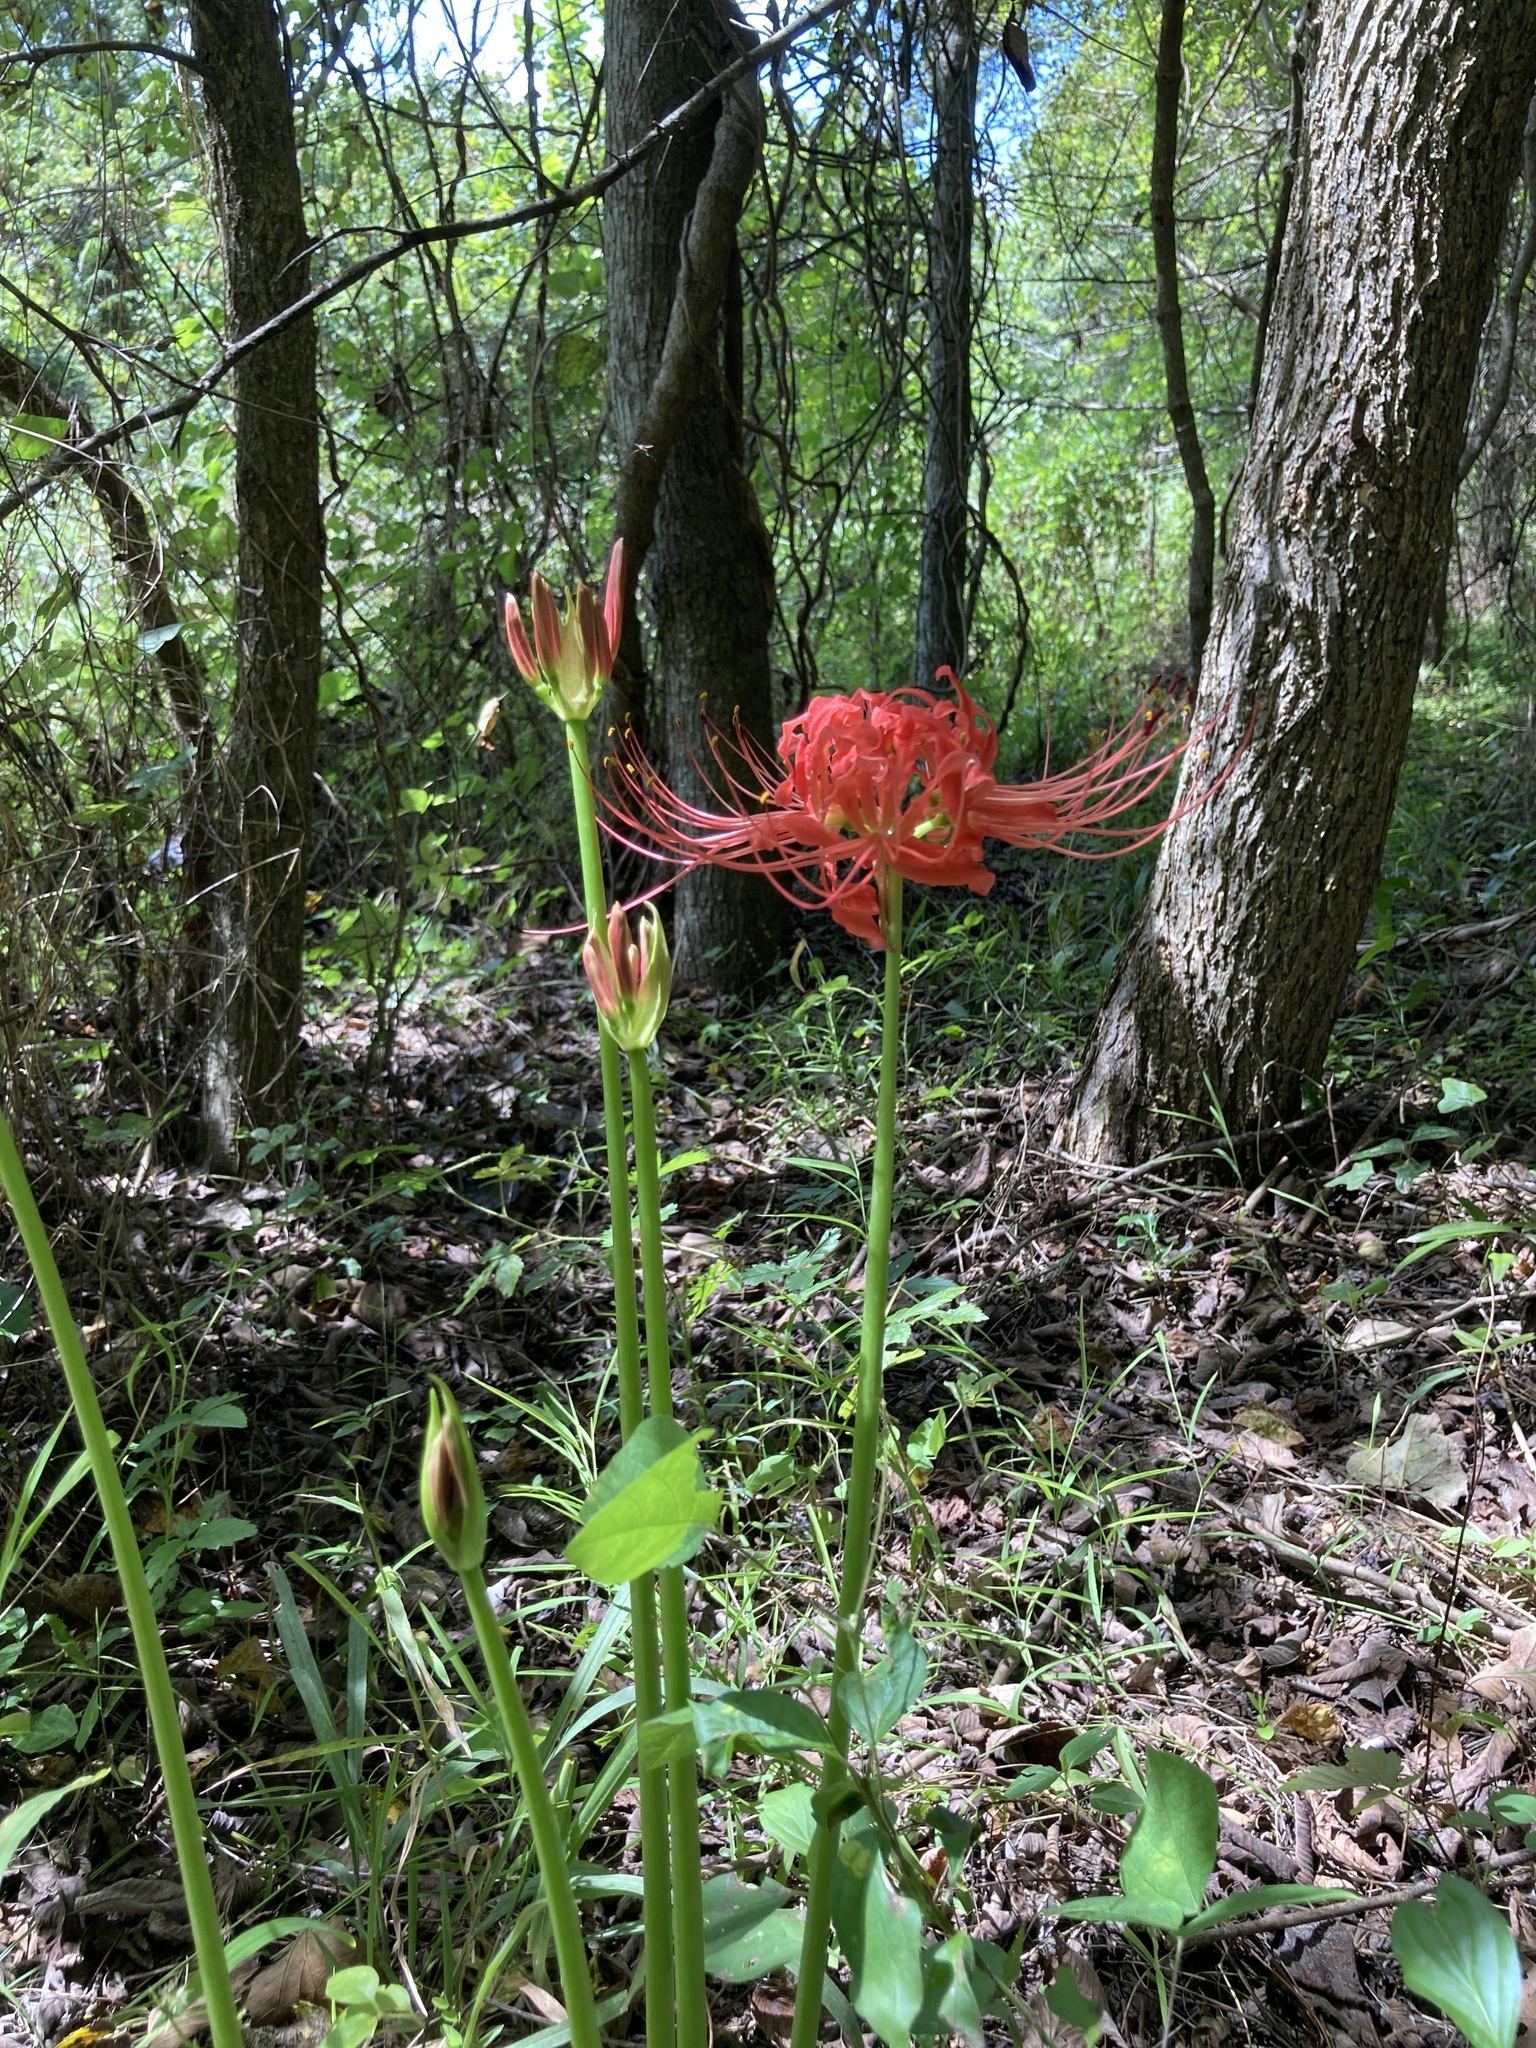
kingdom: Plantae
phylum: Tracheophyta
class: Liliopsida
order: Asparagales
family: Amaryllidaceae
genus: Lycoris
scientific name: Lycoris radiata
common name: Red spider lily
